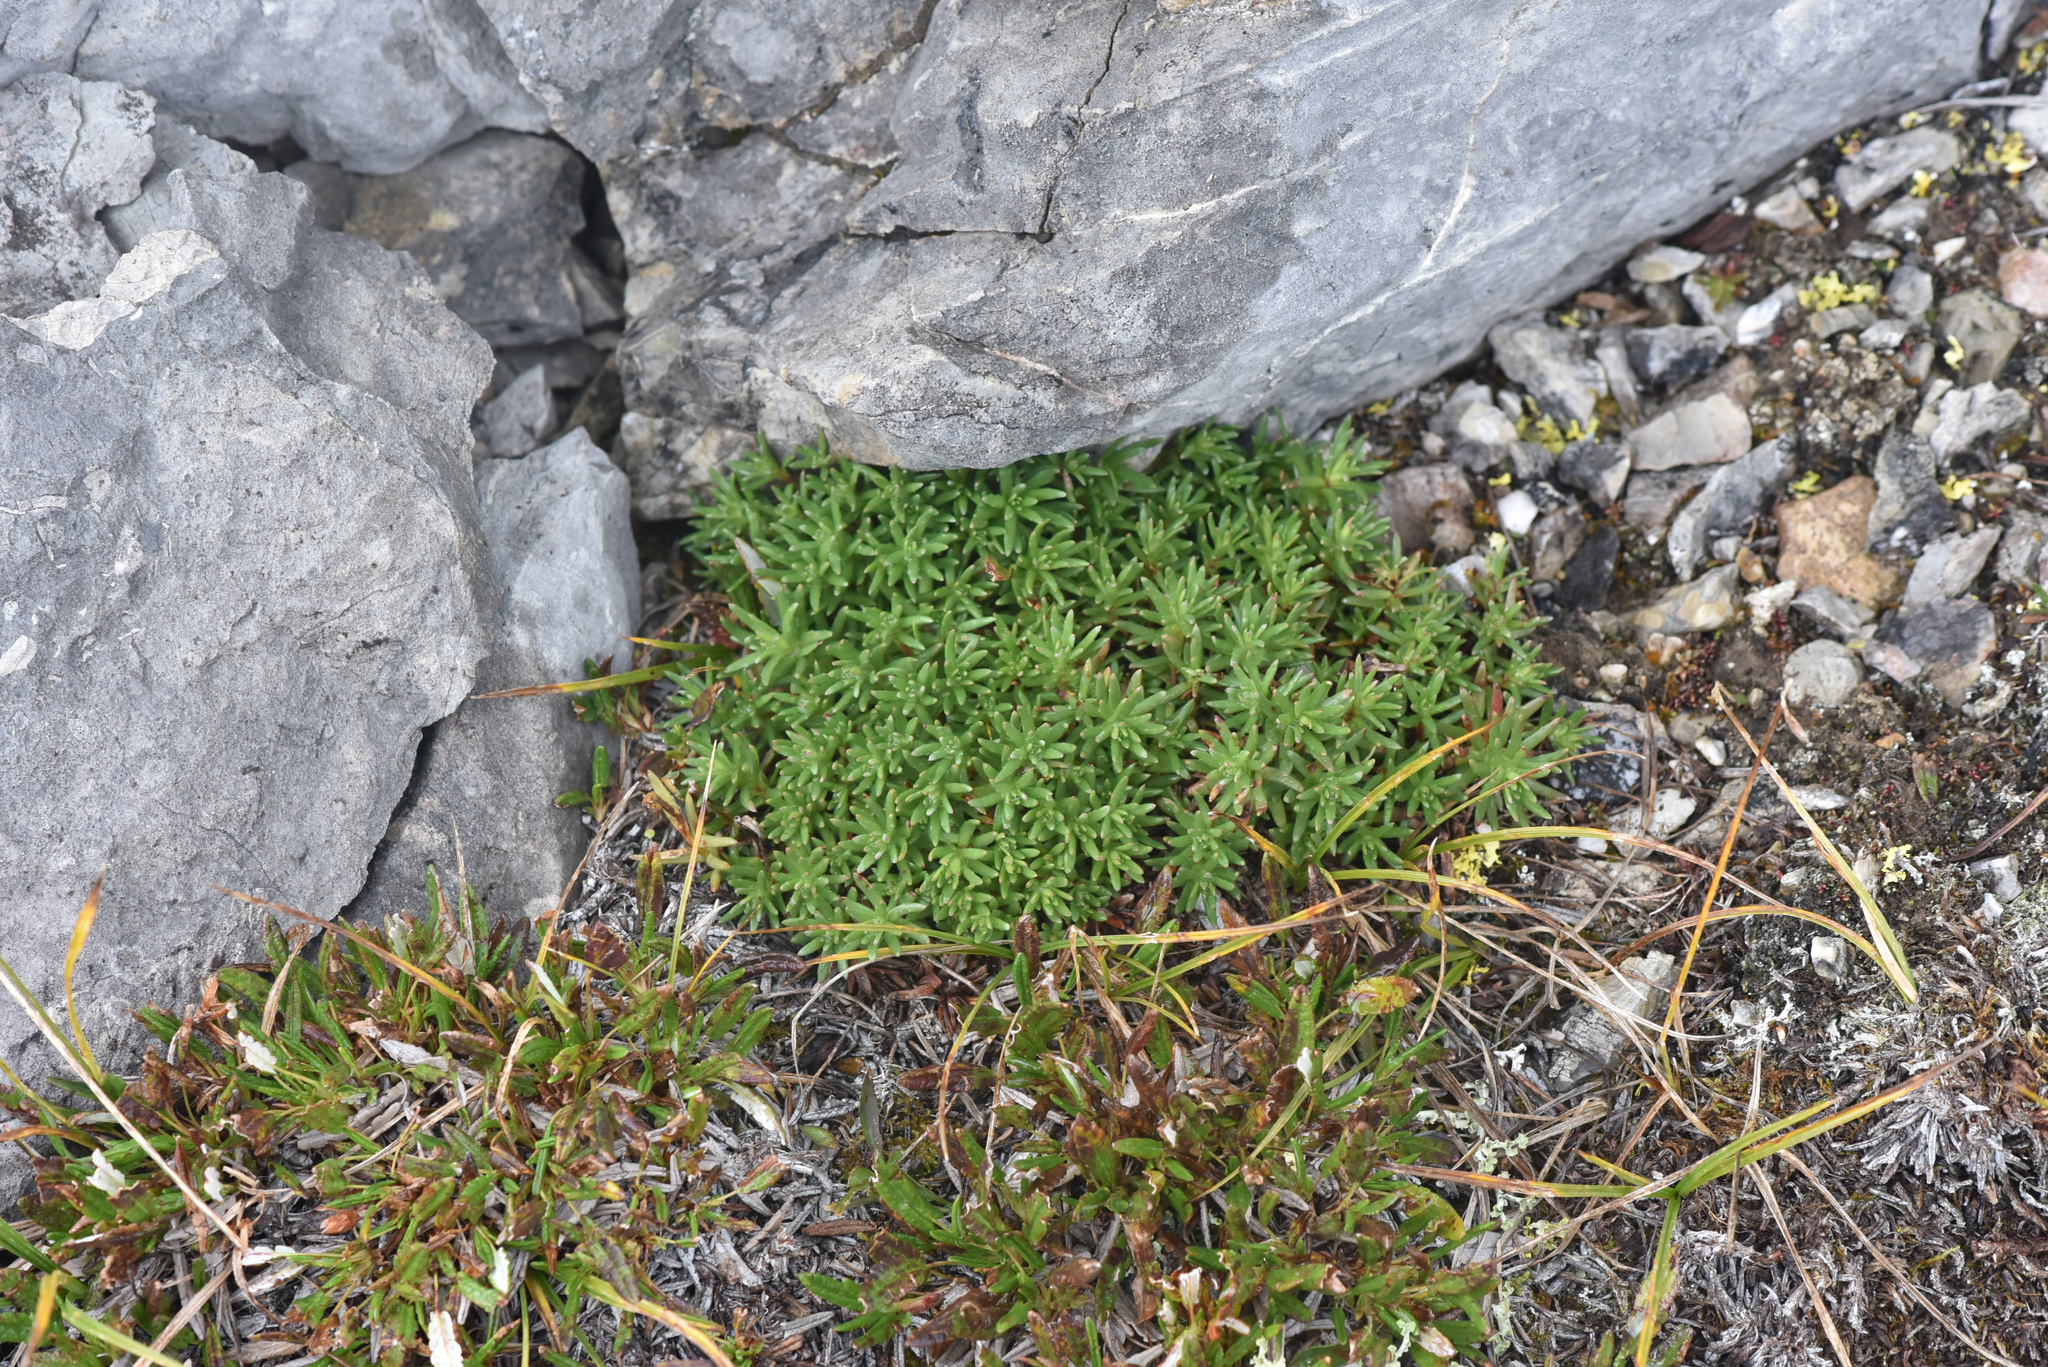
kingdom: Plantae
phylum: Tracheophyta
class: Magnoliopsida
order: Saxifragales
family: Saxifragaceae
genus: Saxifraga
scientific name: Saxifraga aizoides
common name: Yellow mountain saxifrage
